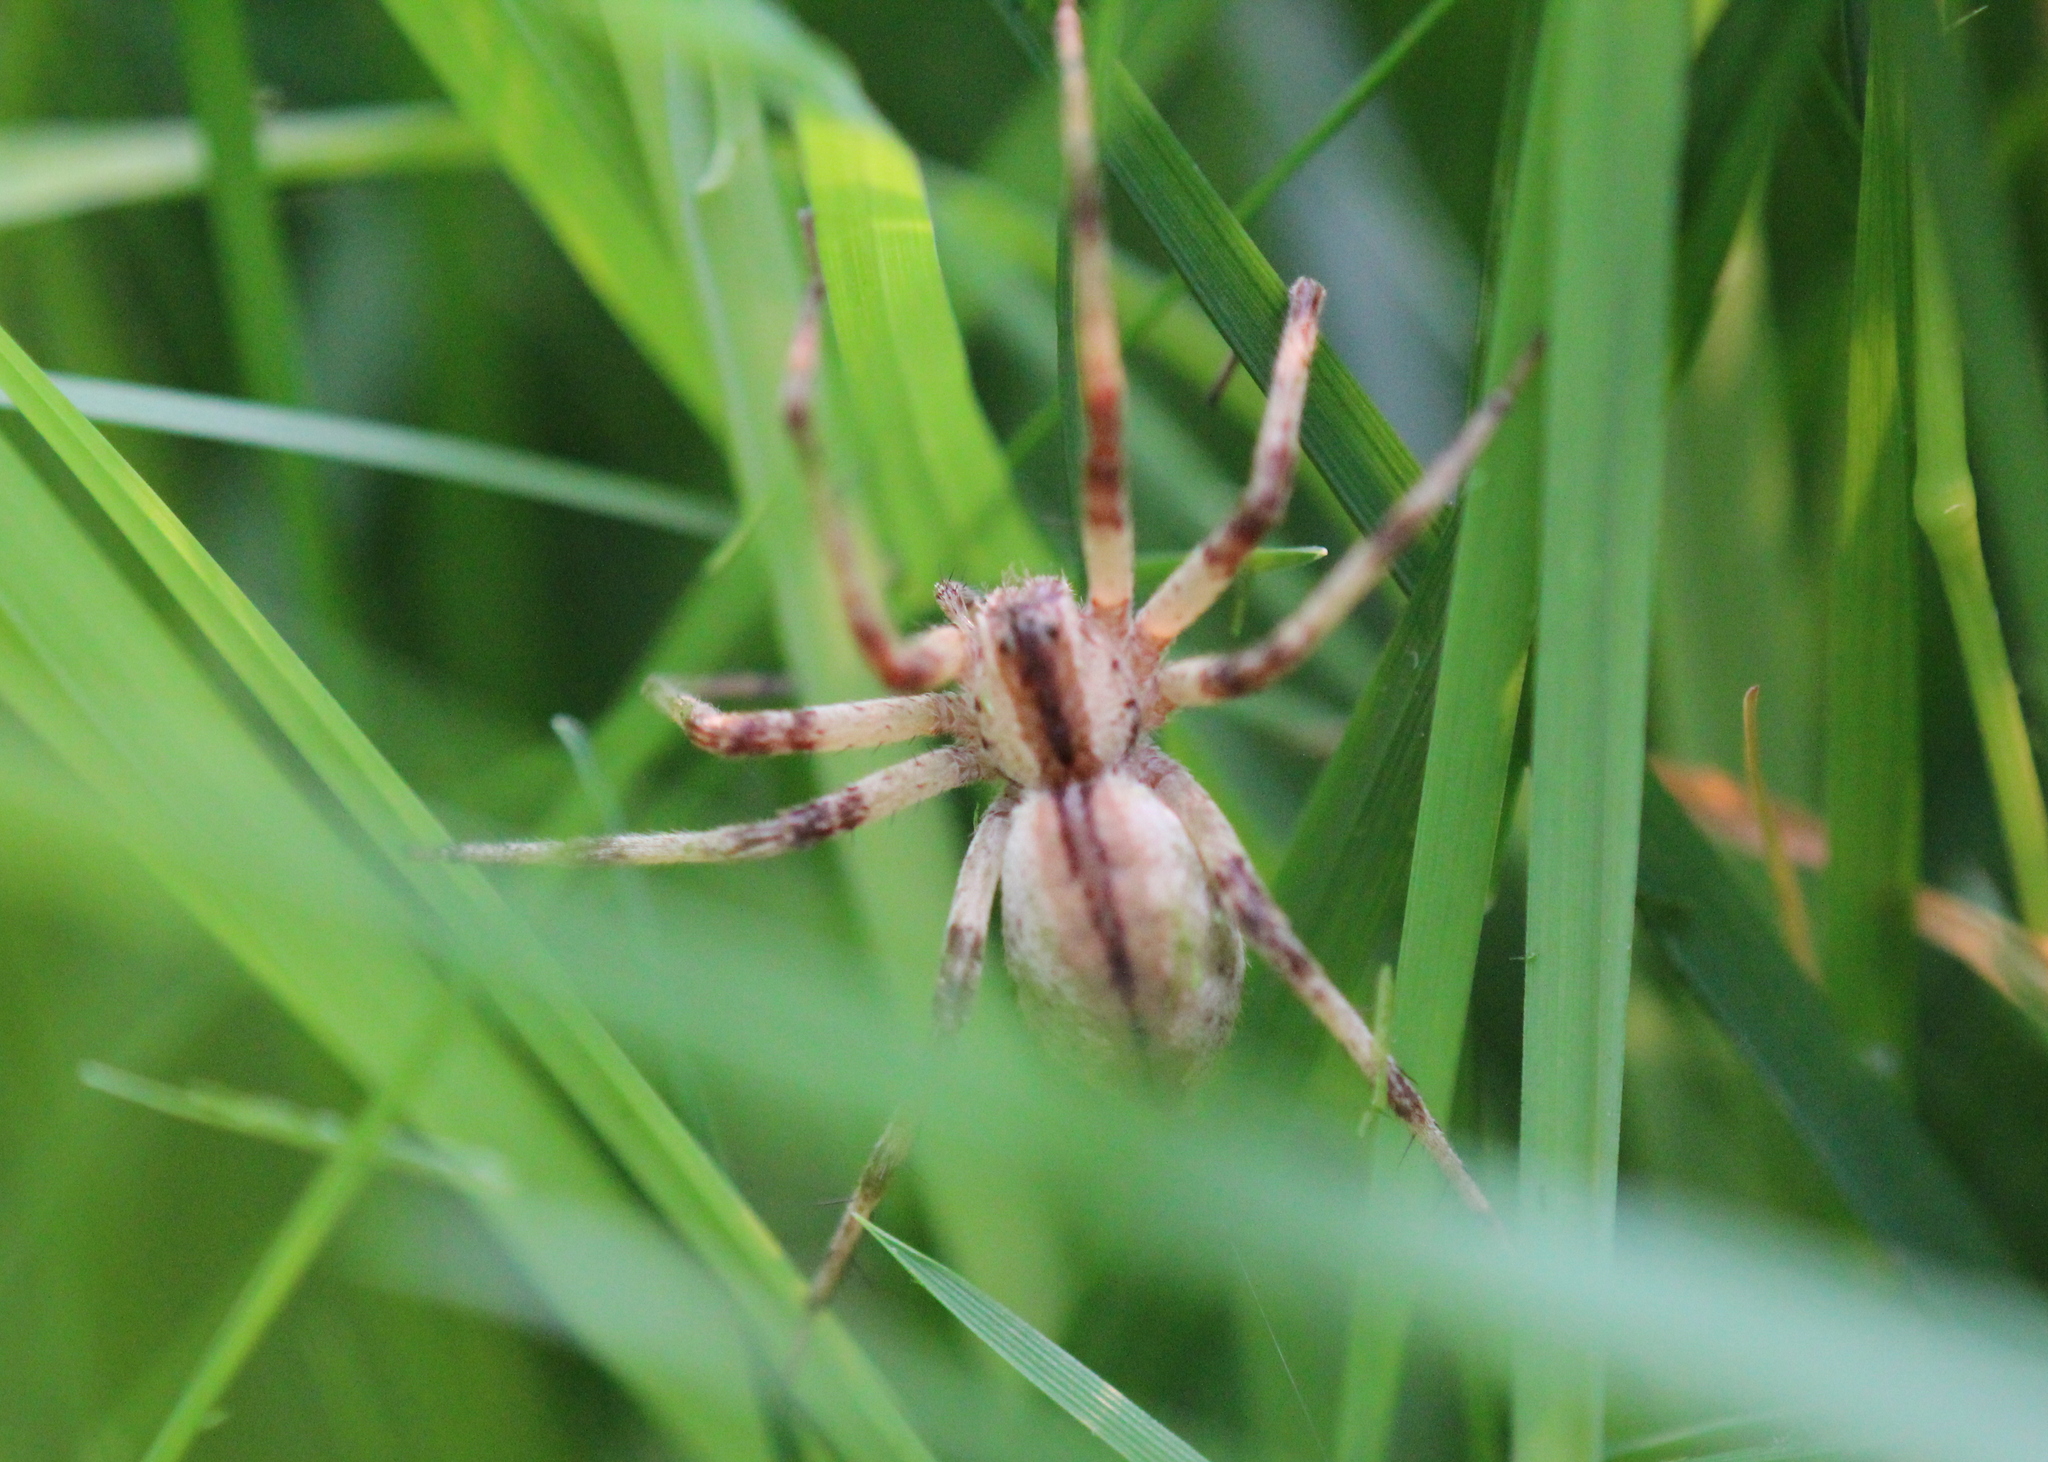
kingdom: Animalia
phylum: Arthropoda
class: Arachnida
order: Araneae
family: Pisauridae
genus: Pisaurina
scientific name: Pisaurina mira
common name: American nursery web spider
